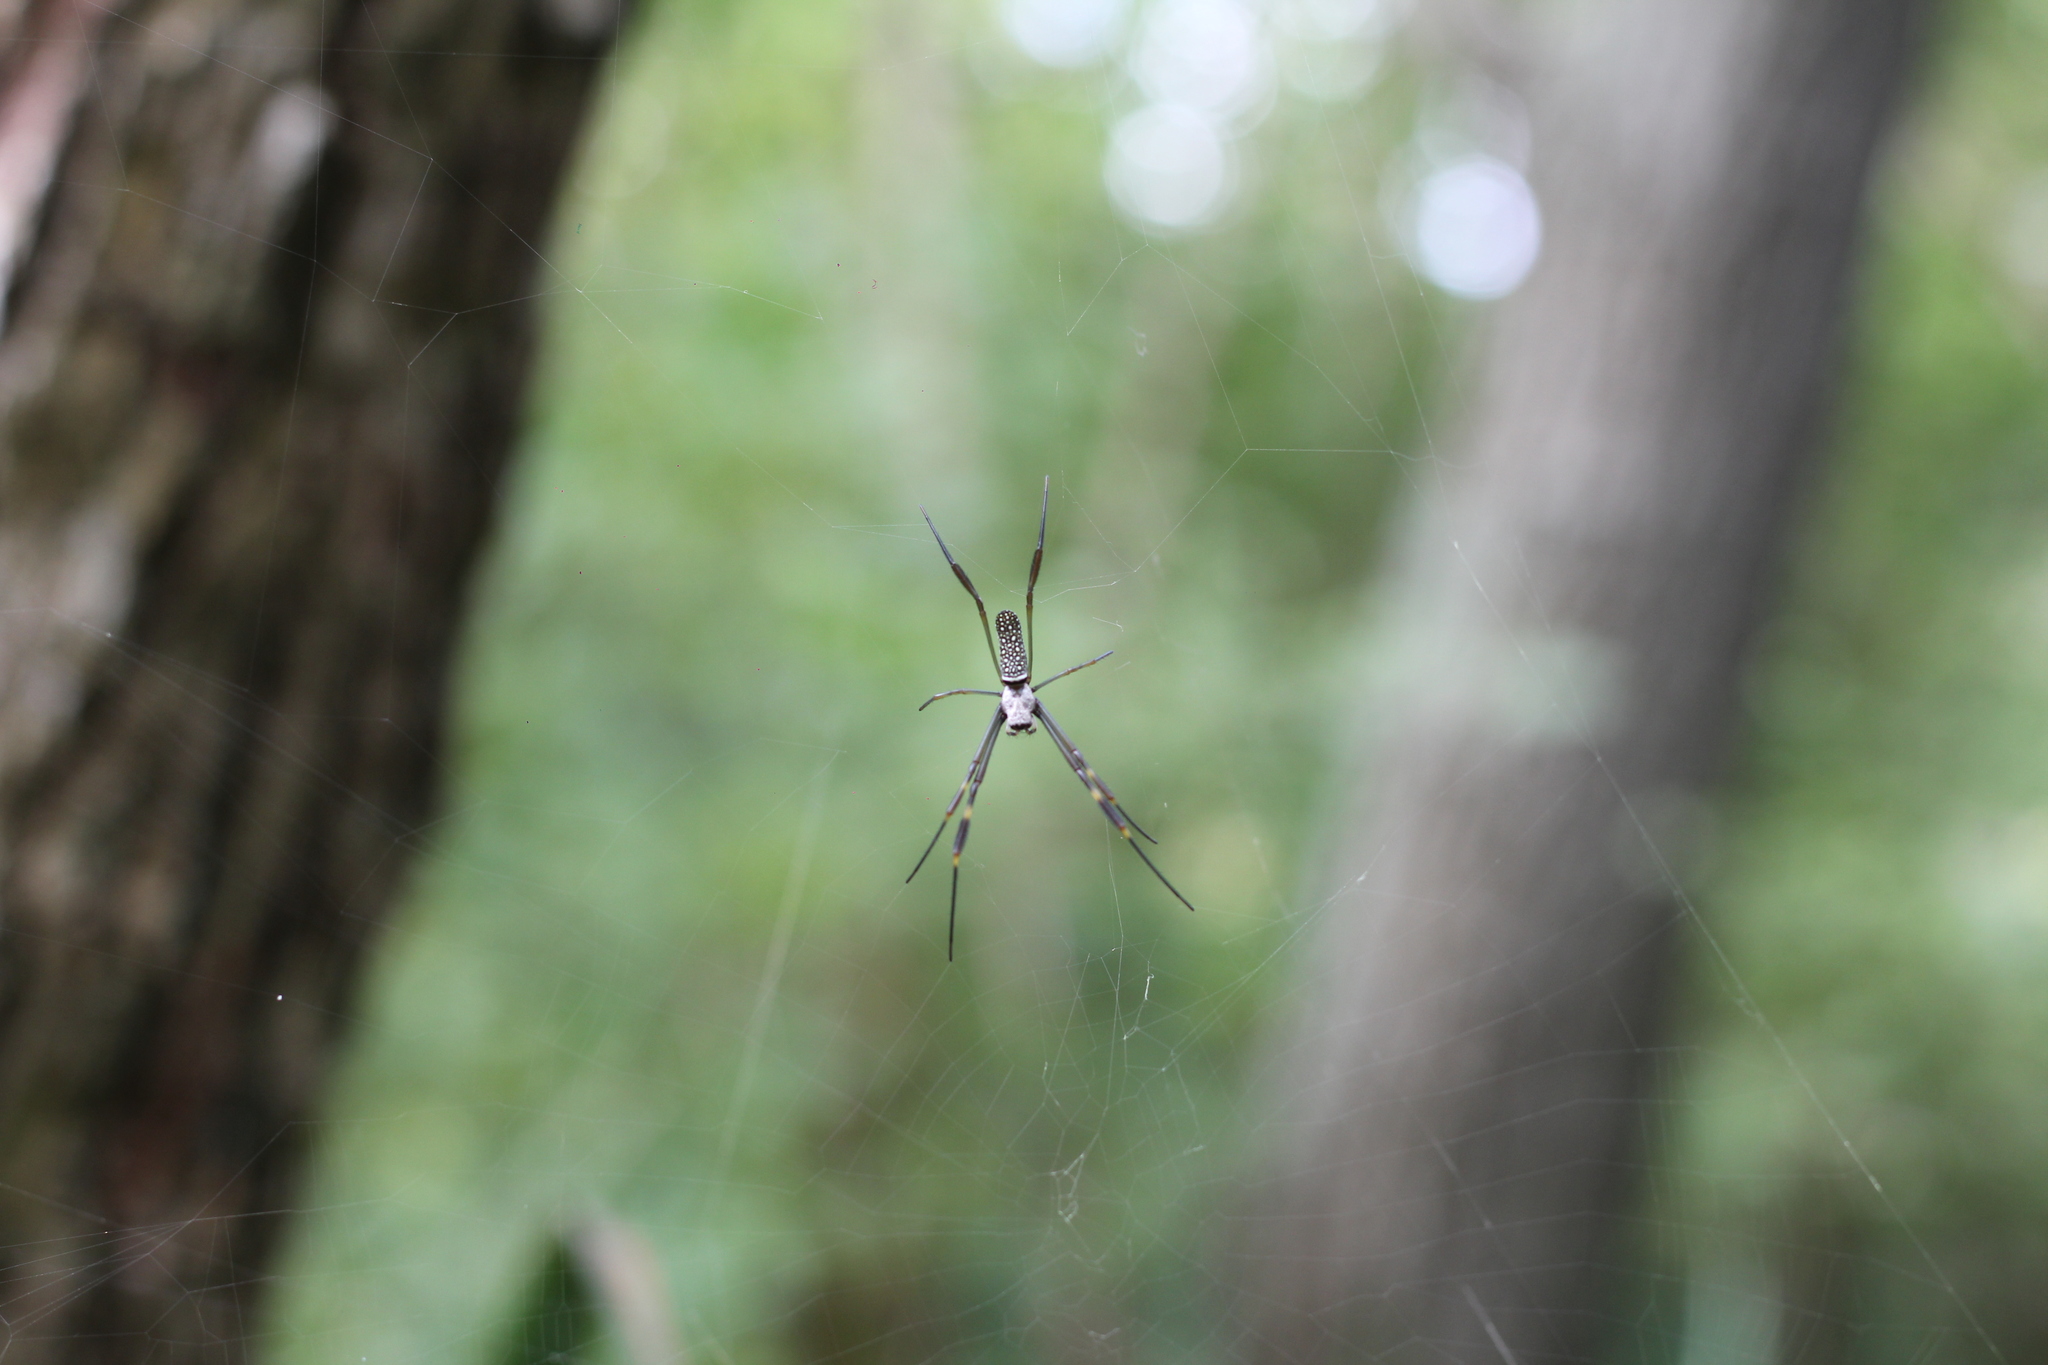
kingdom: Animalia
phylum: Arthropoda
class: Arachnida
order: Araneae
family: Araneidae
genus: Trichonephila
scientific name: Trichonephila clavipes
